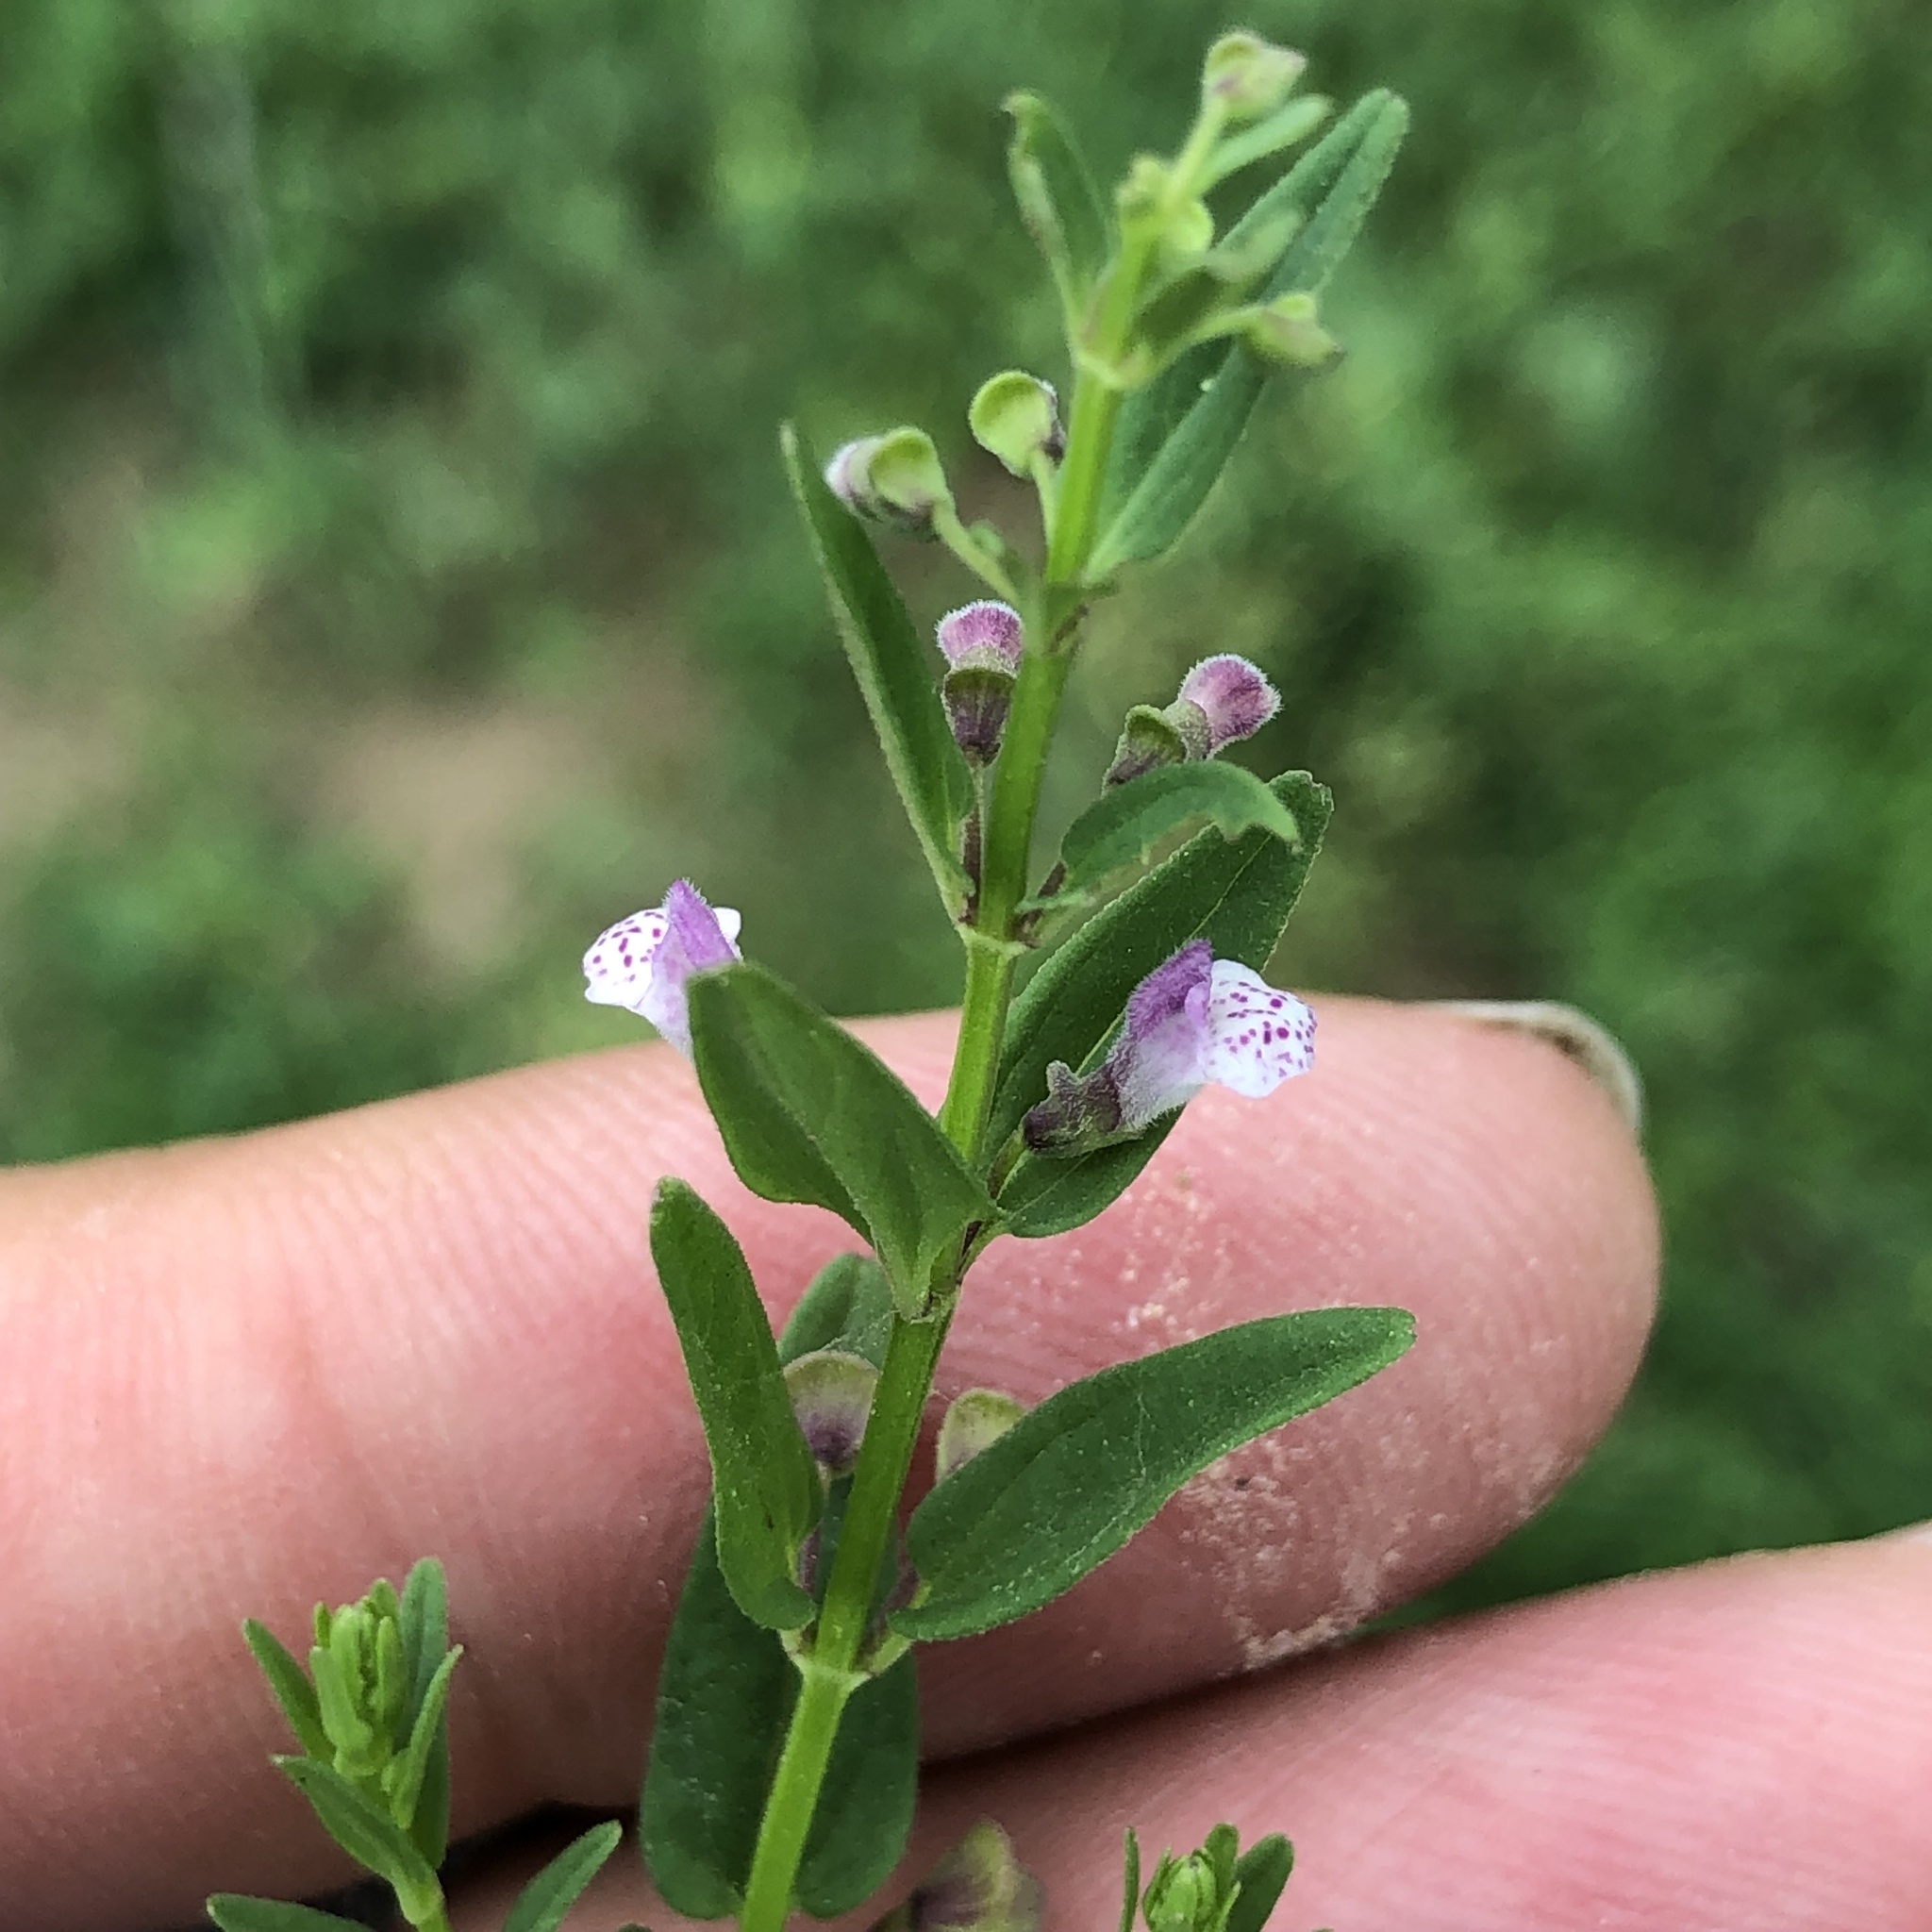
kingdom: Plantae
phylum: Tracheophyta
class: Magnoliopsida
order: Lamiales
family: Lamiaceae
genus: Scutellaria
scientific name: Scutellaria racemosa
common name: South american skullcap
